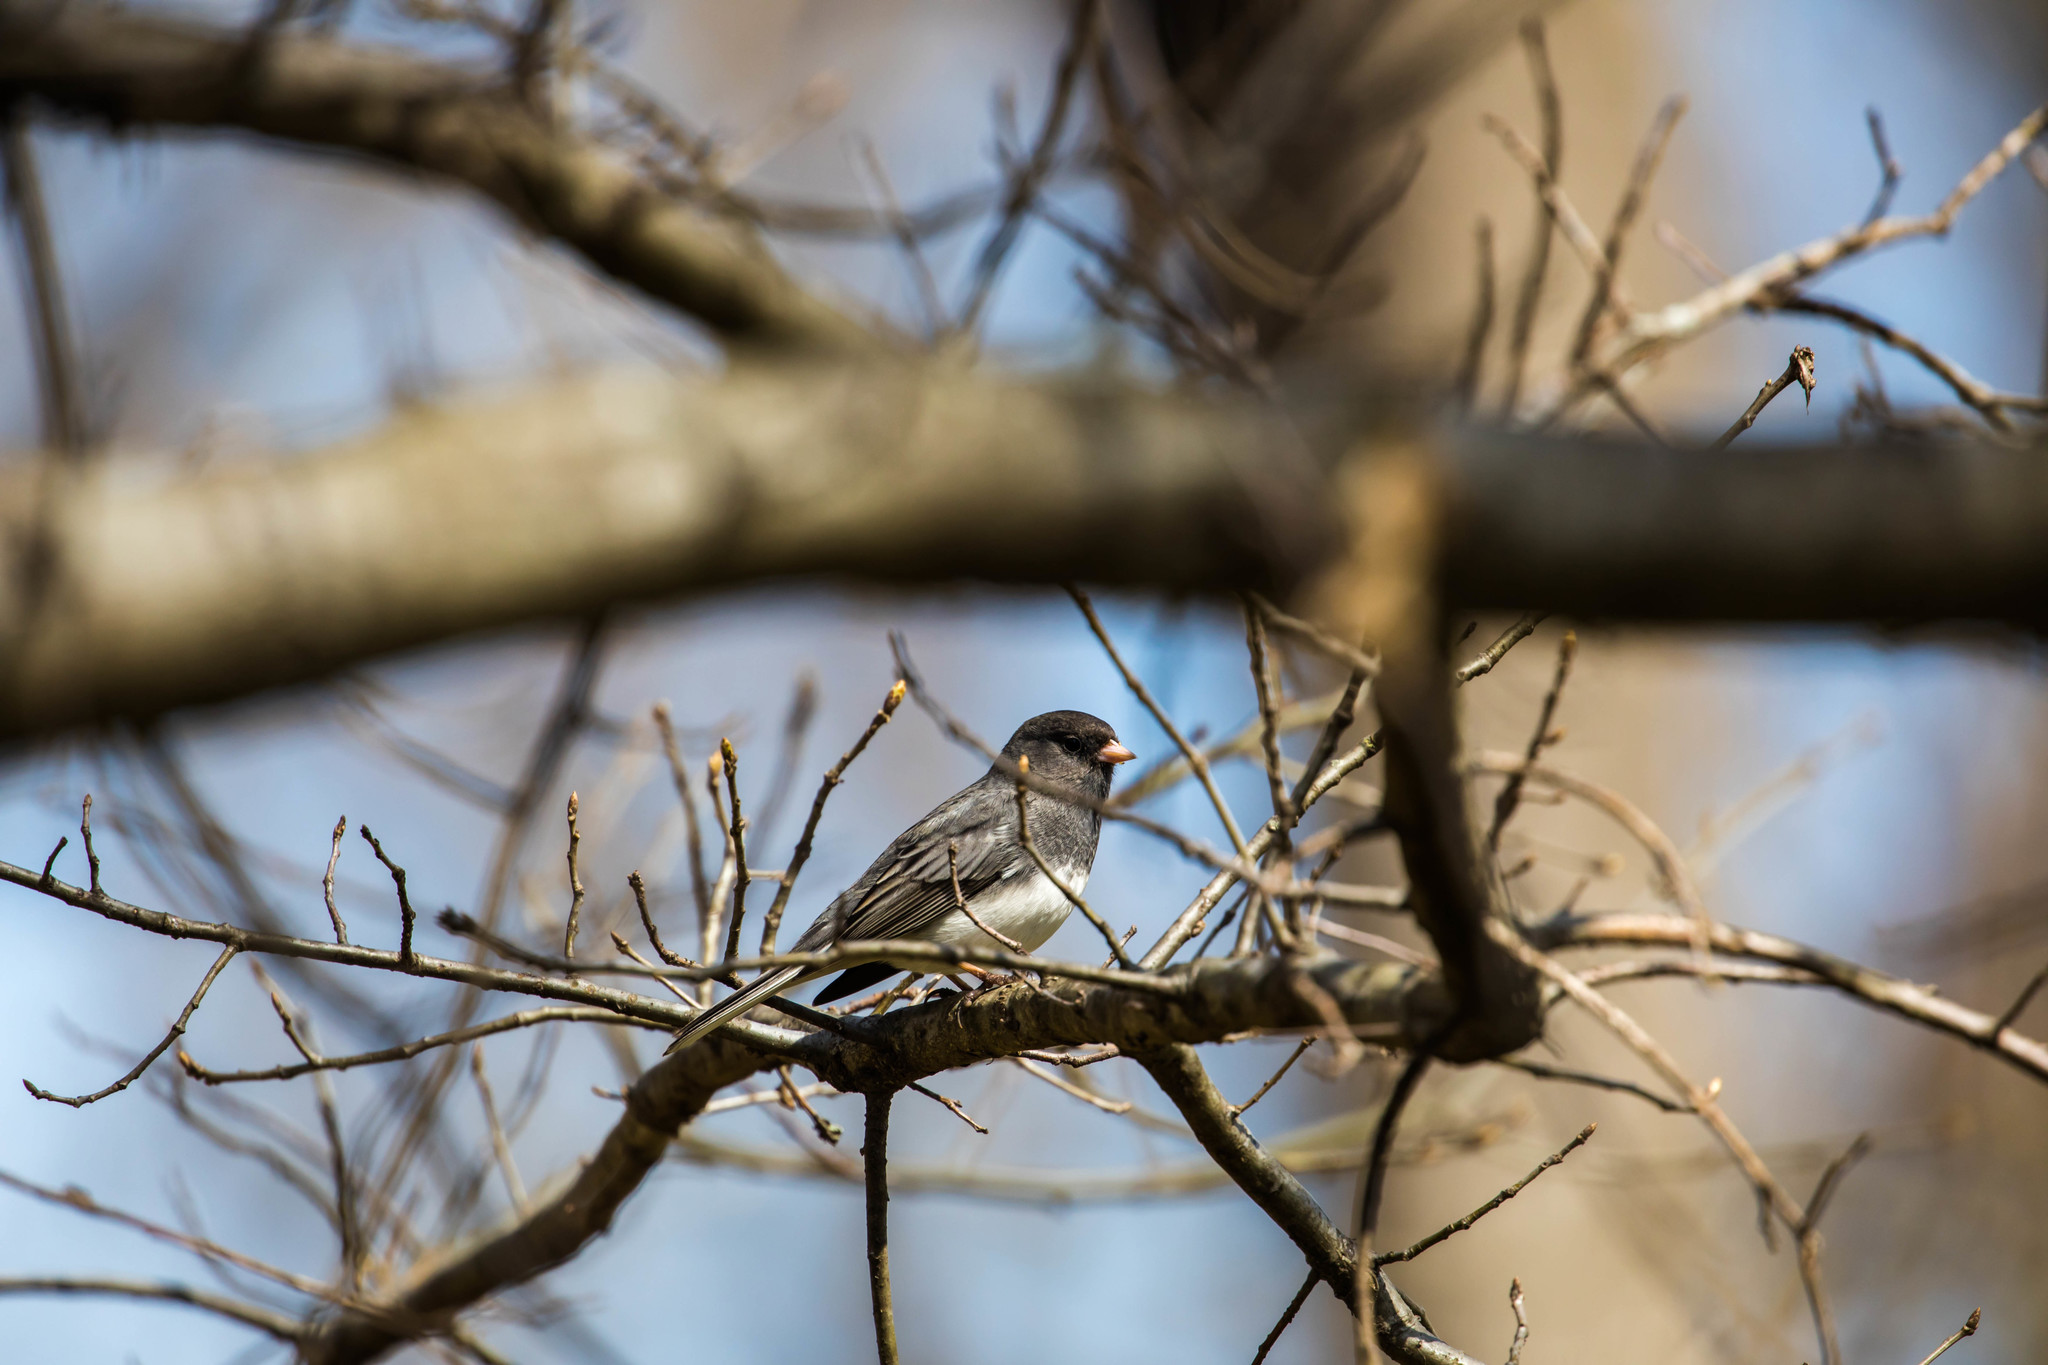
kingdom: Animalia
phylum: Chordata
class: Aves
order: Passeriformes
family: Passerellidae
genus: Junco
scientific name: Junco hyemalis
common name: Dark-eyed junco
